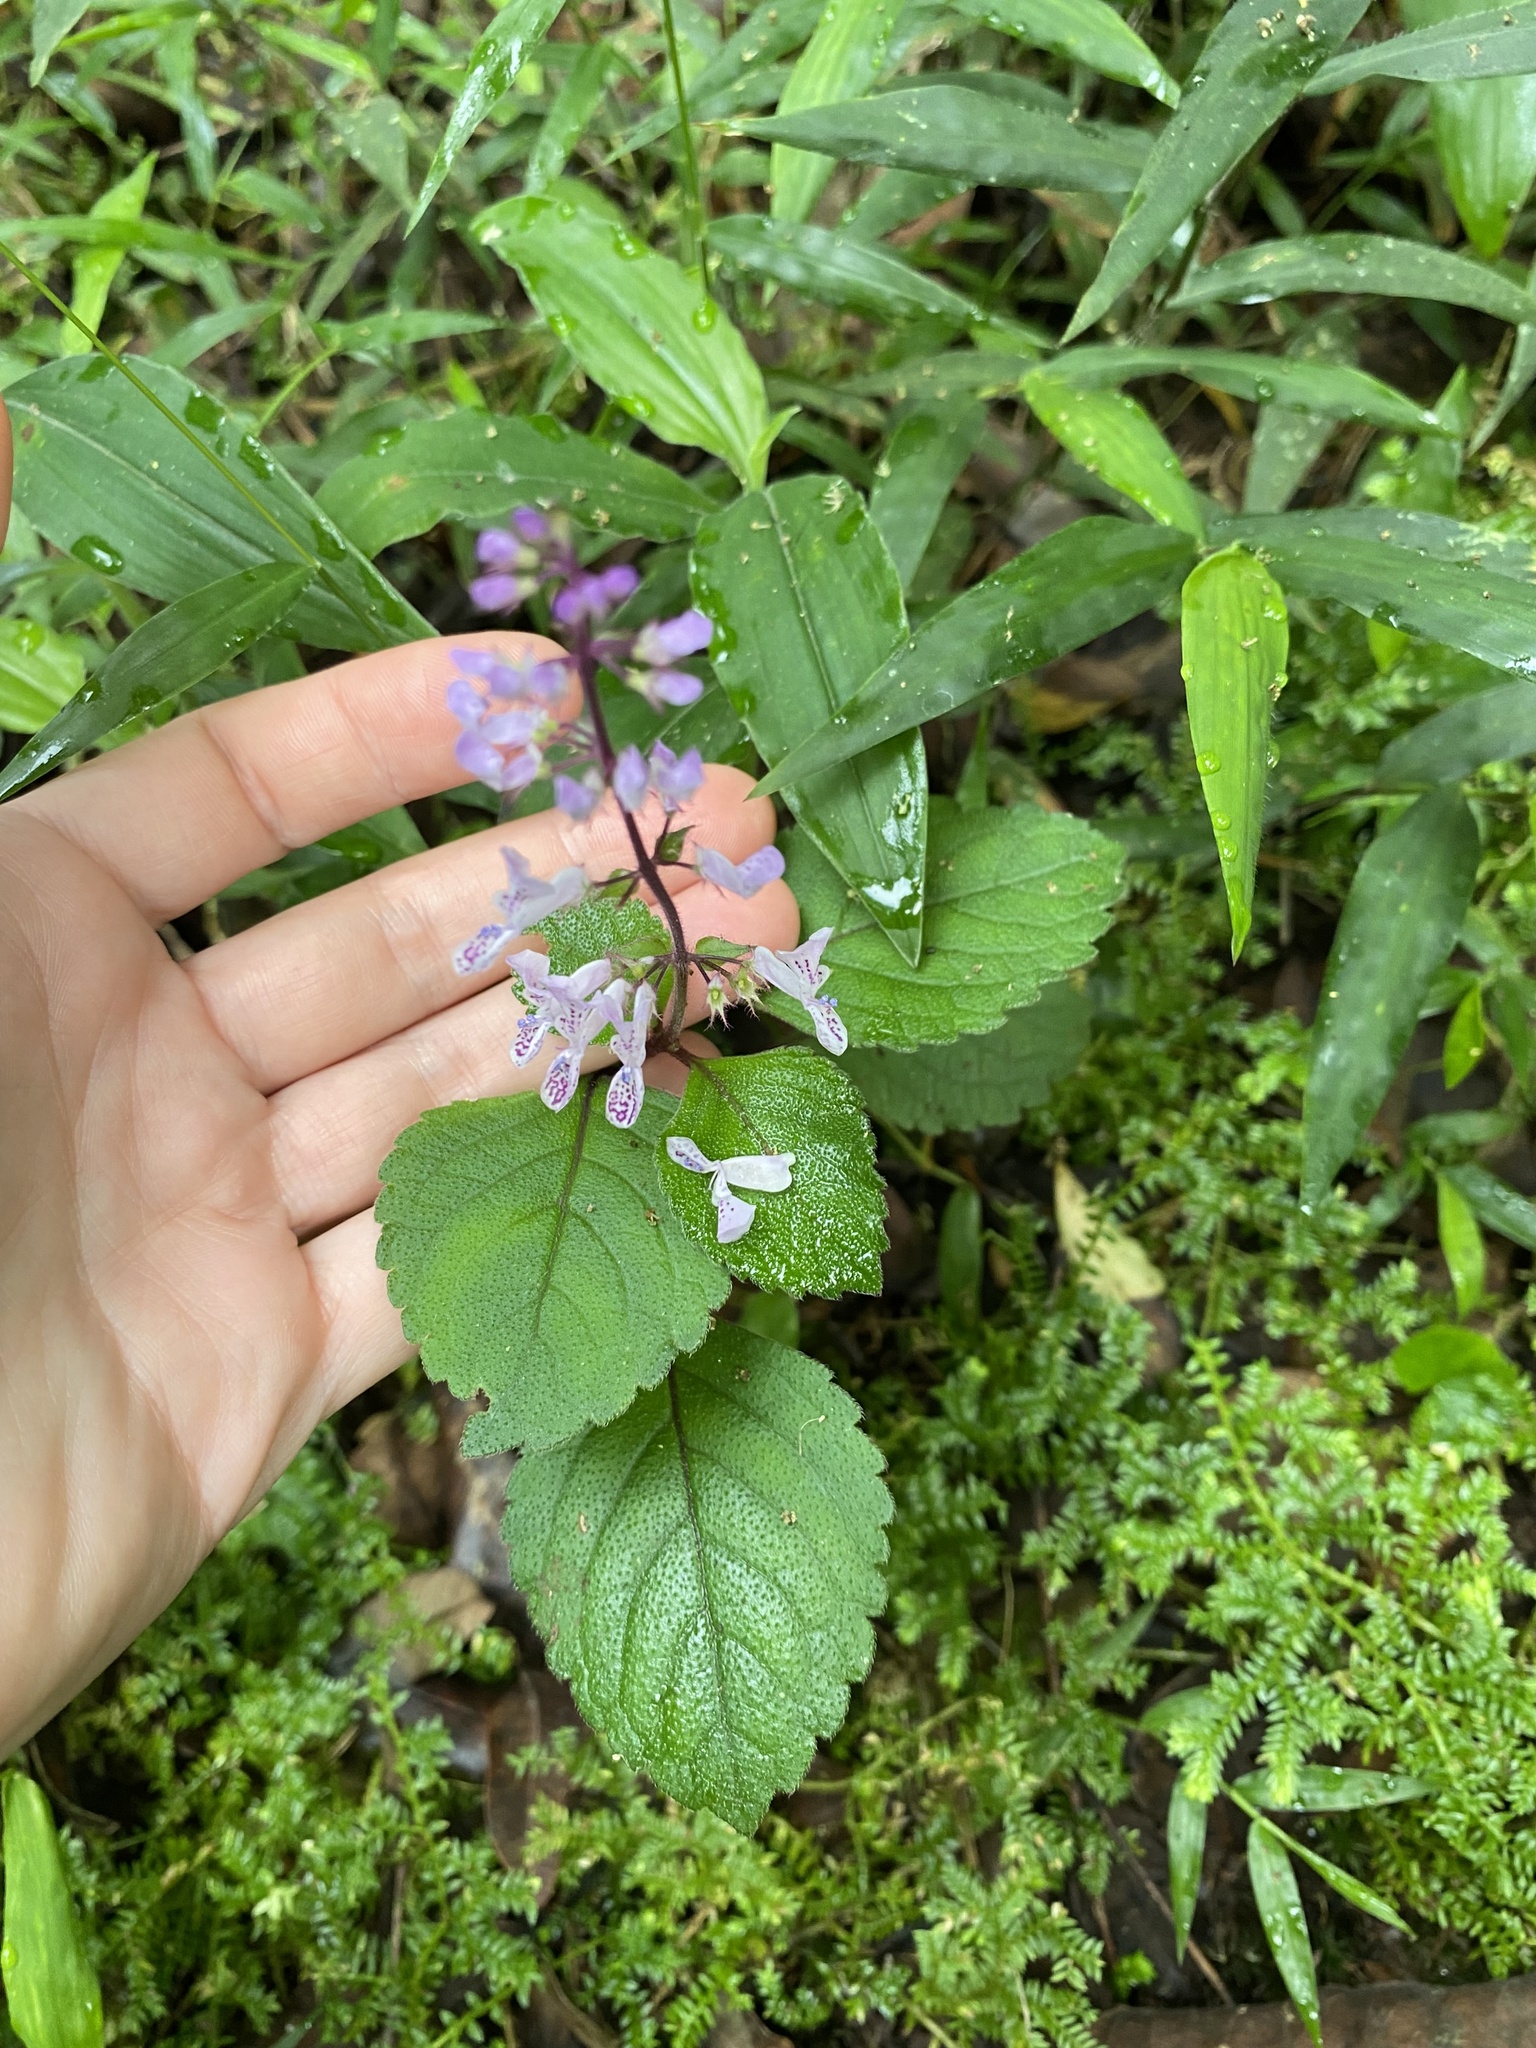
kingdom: Plantae
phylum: Tracheophyta
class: Magnoliopsida
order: Lamiales
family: Lamiaceae
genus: Plectranthus
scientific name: Plectranthus ciliatus
